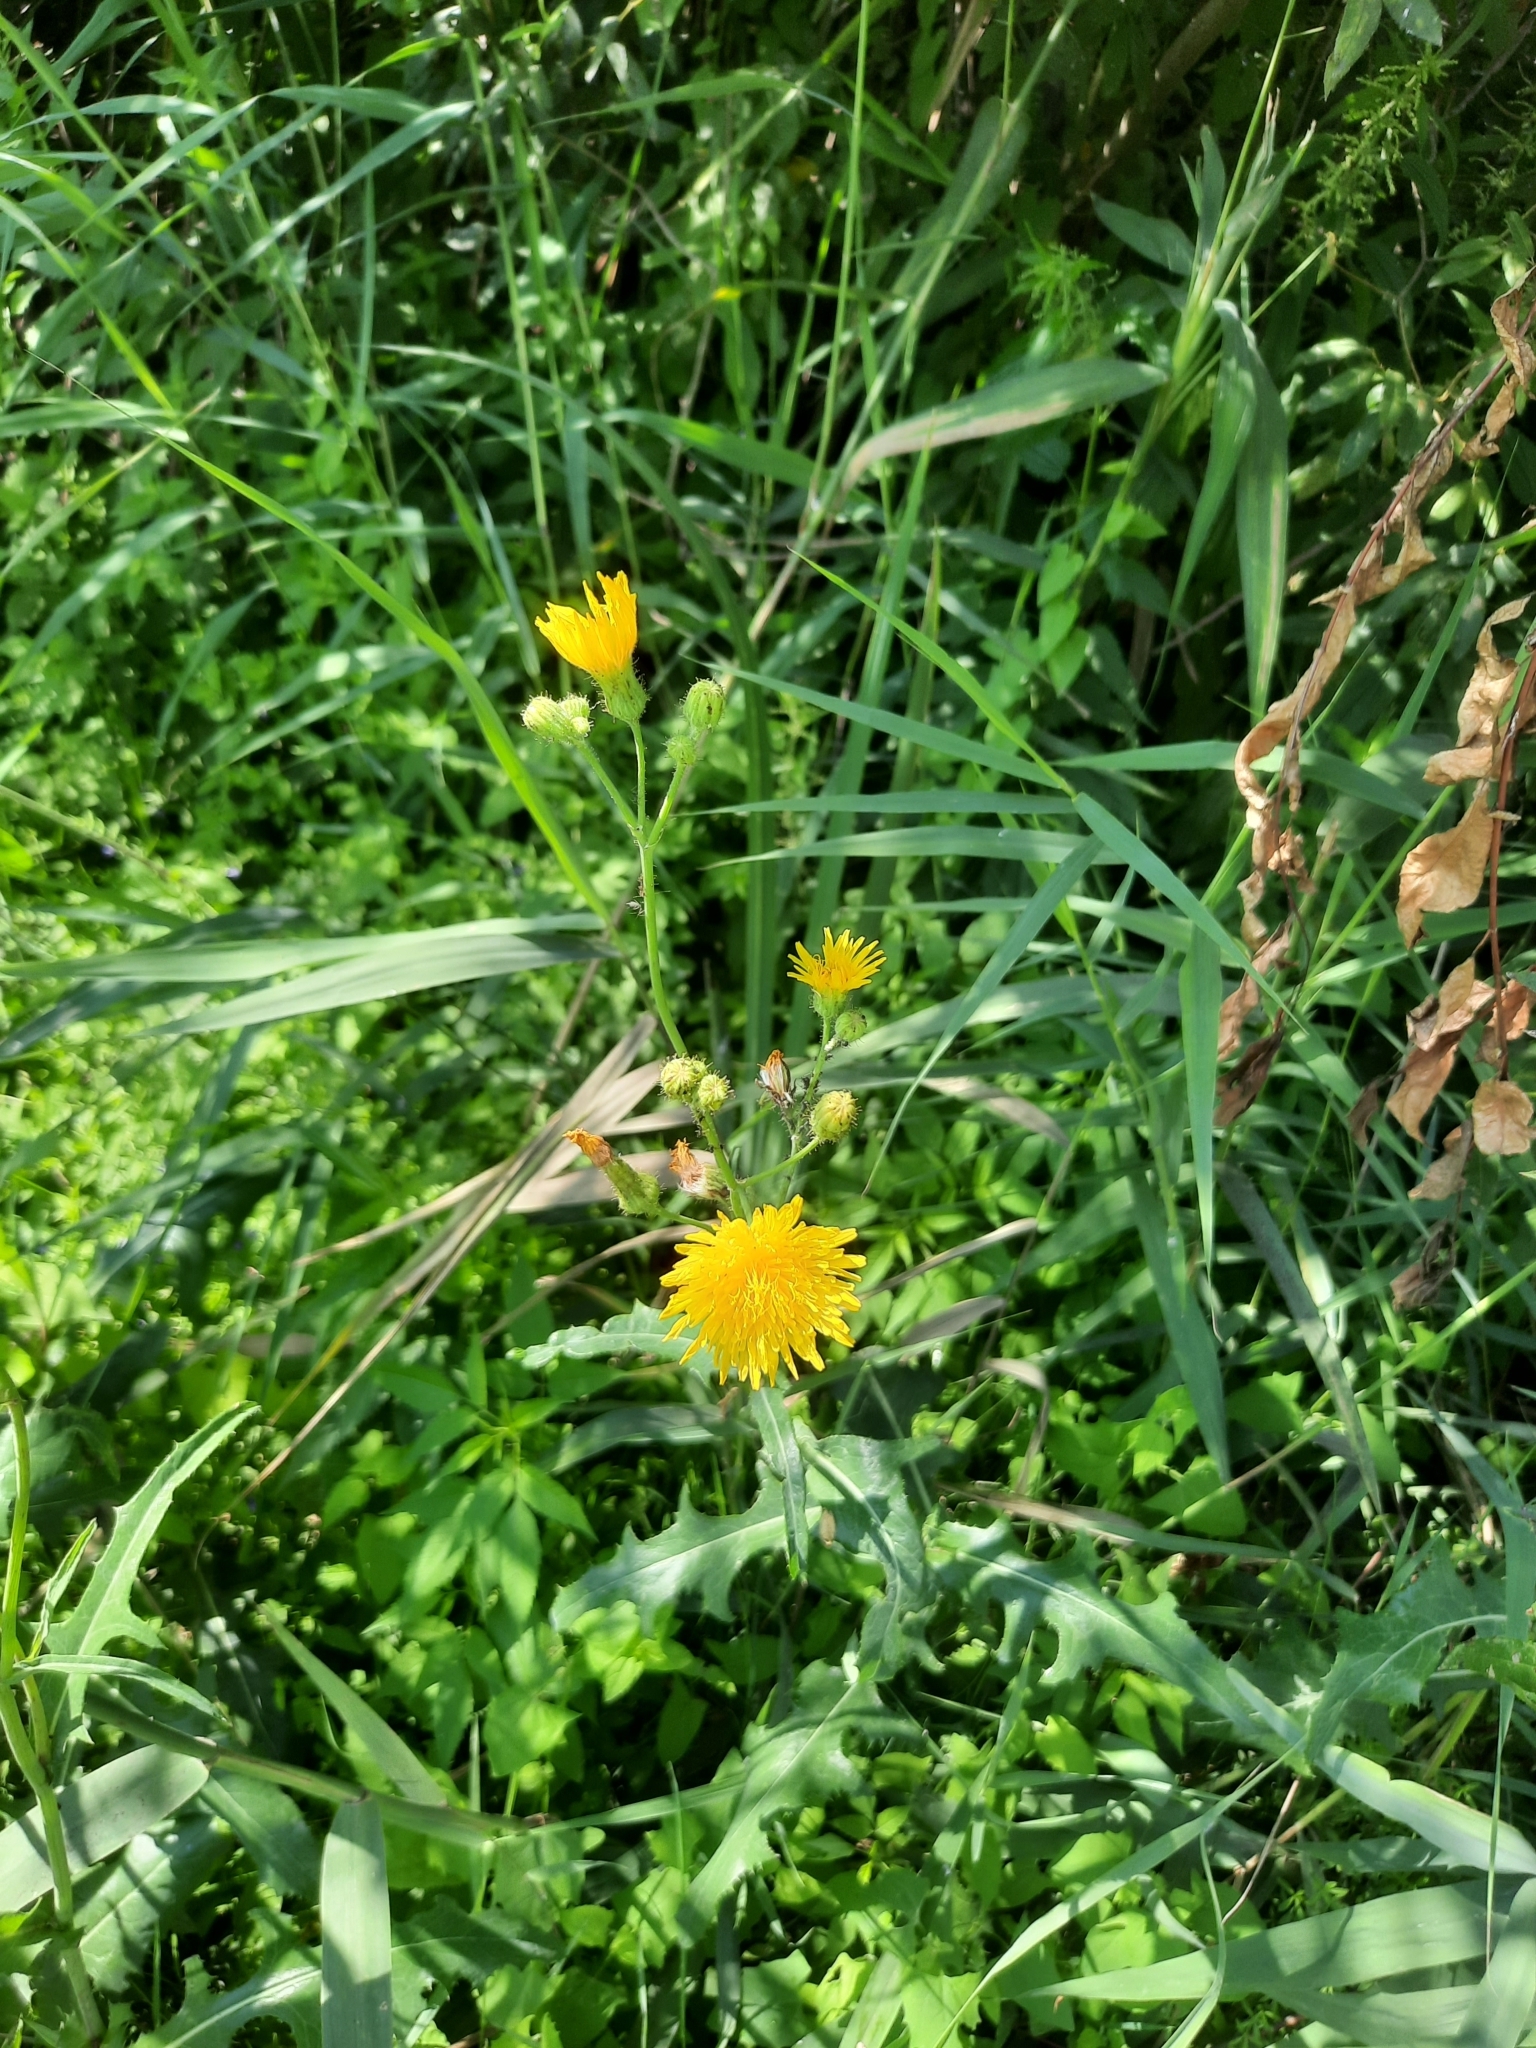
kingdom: Plantae
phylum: Tracheophyta
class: Magnoliopsida
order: Asterales
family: Asteraceae
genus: Sonchus
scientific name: Sonchus arvensis
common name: Perennial sow-thistle
